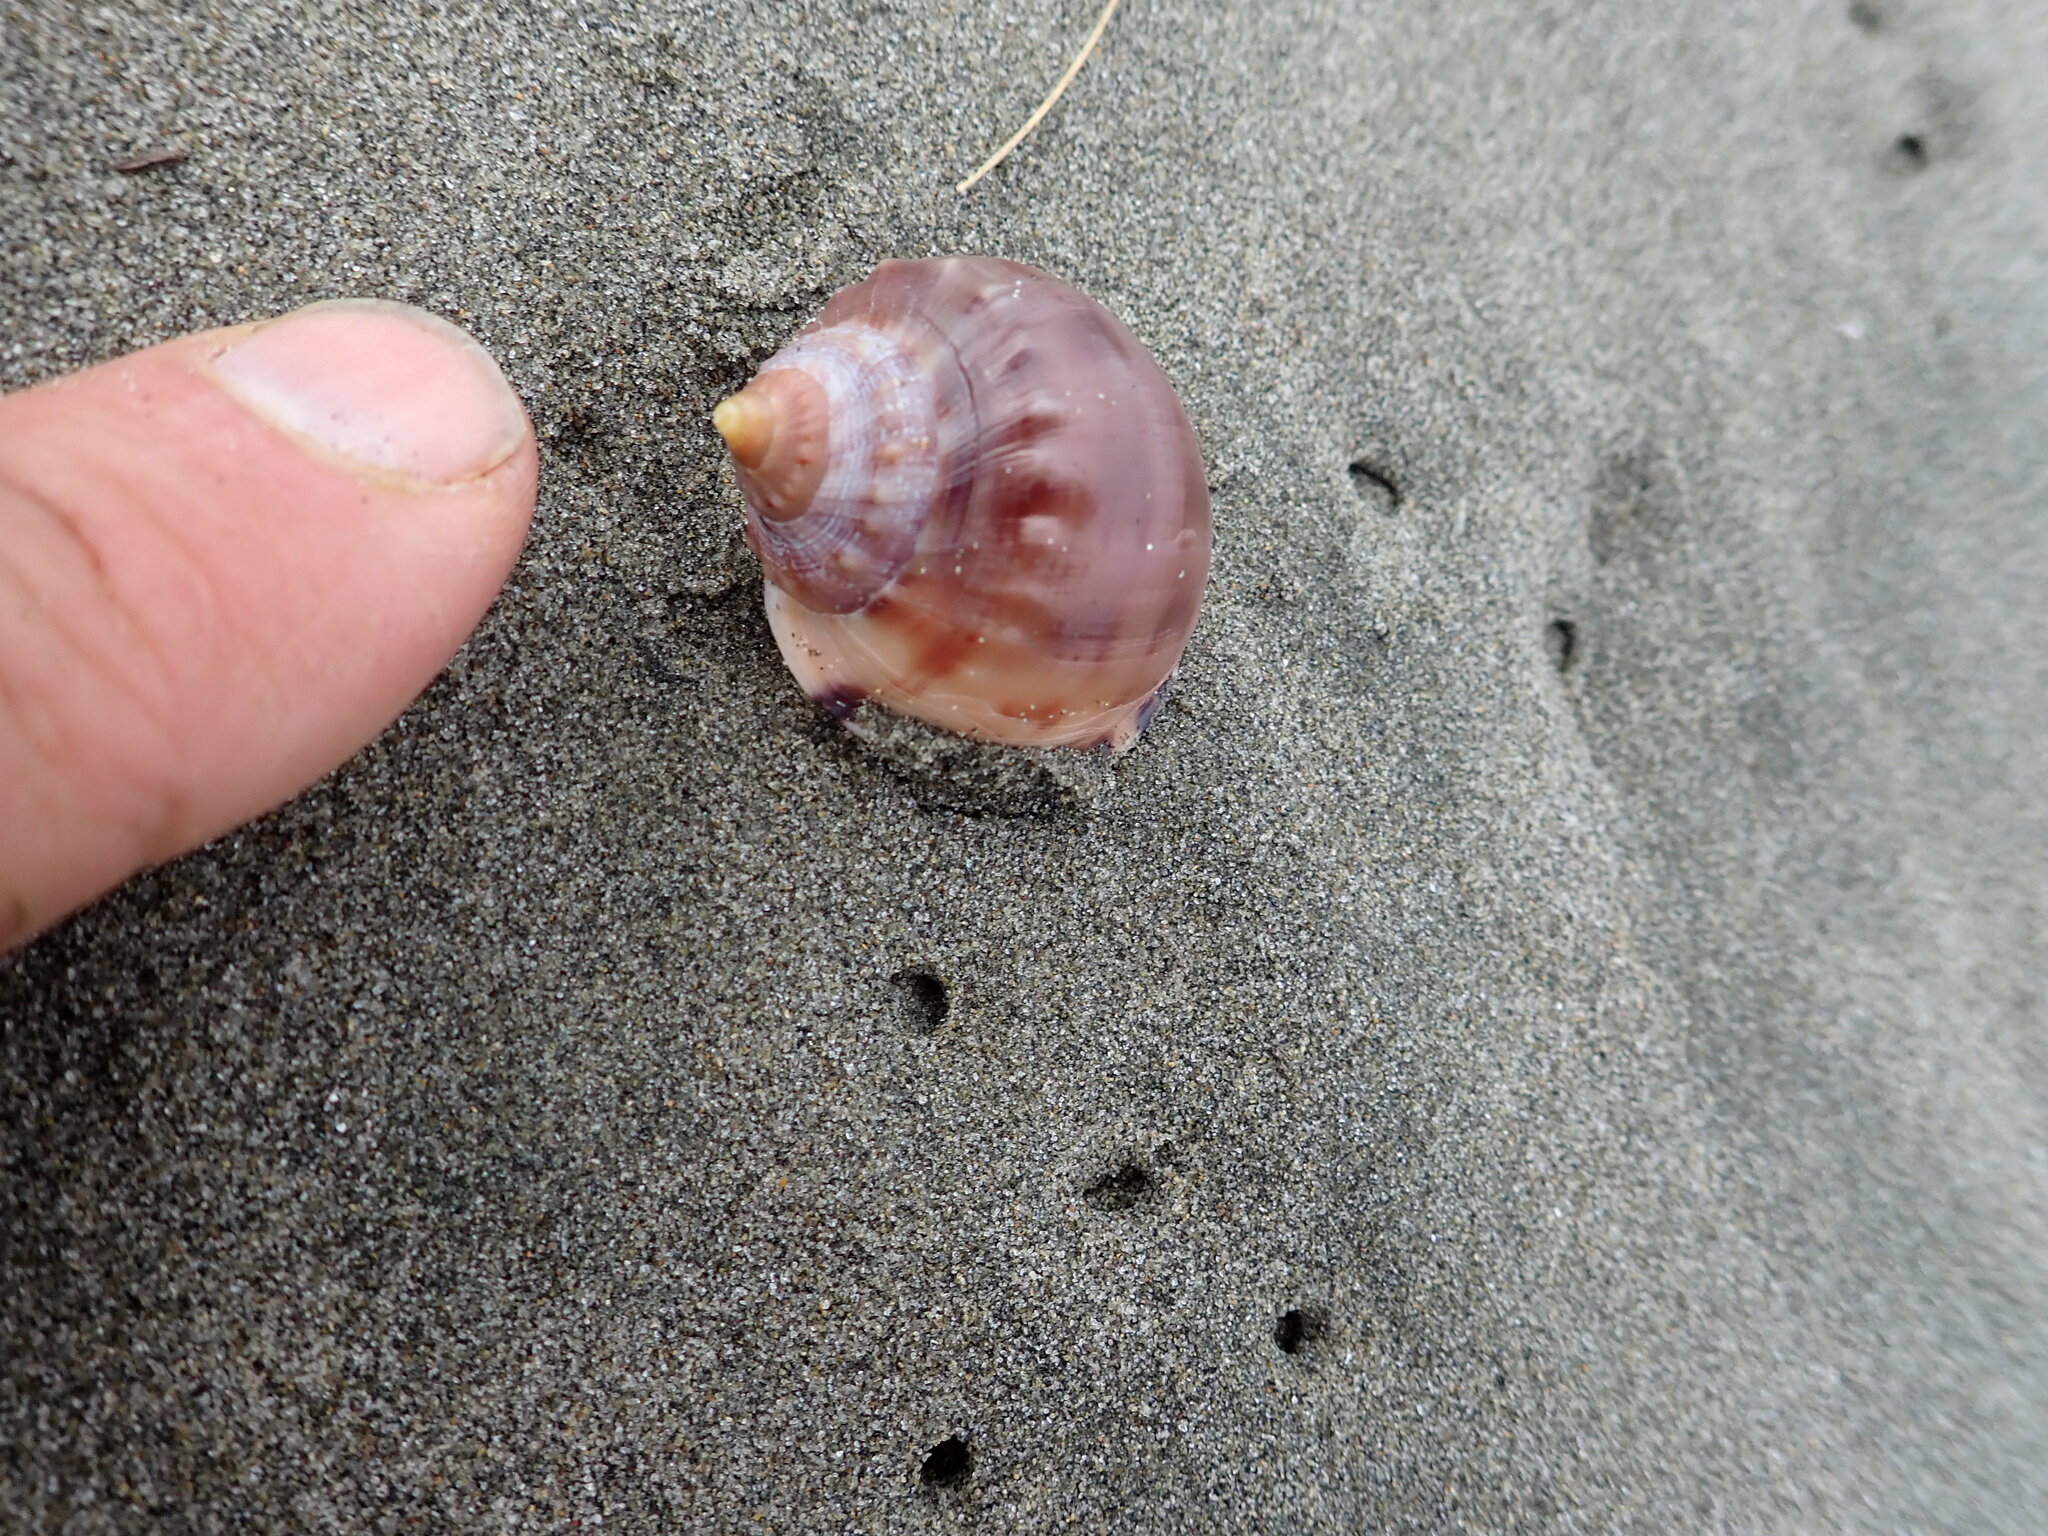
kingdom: Animalia
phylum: Mollusca
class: Gastropoda
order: Littorinimorpha
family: Cassidae
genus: Semicassis
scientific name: Semicassis pyrum
